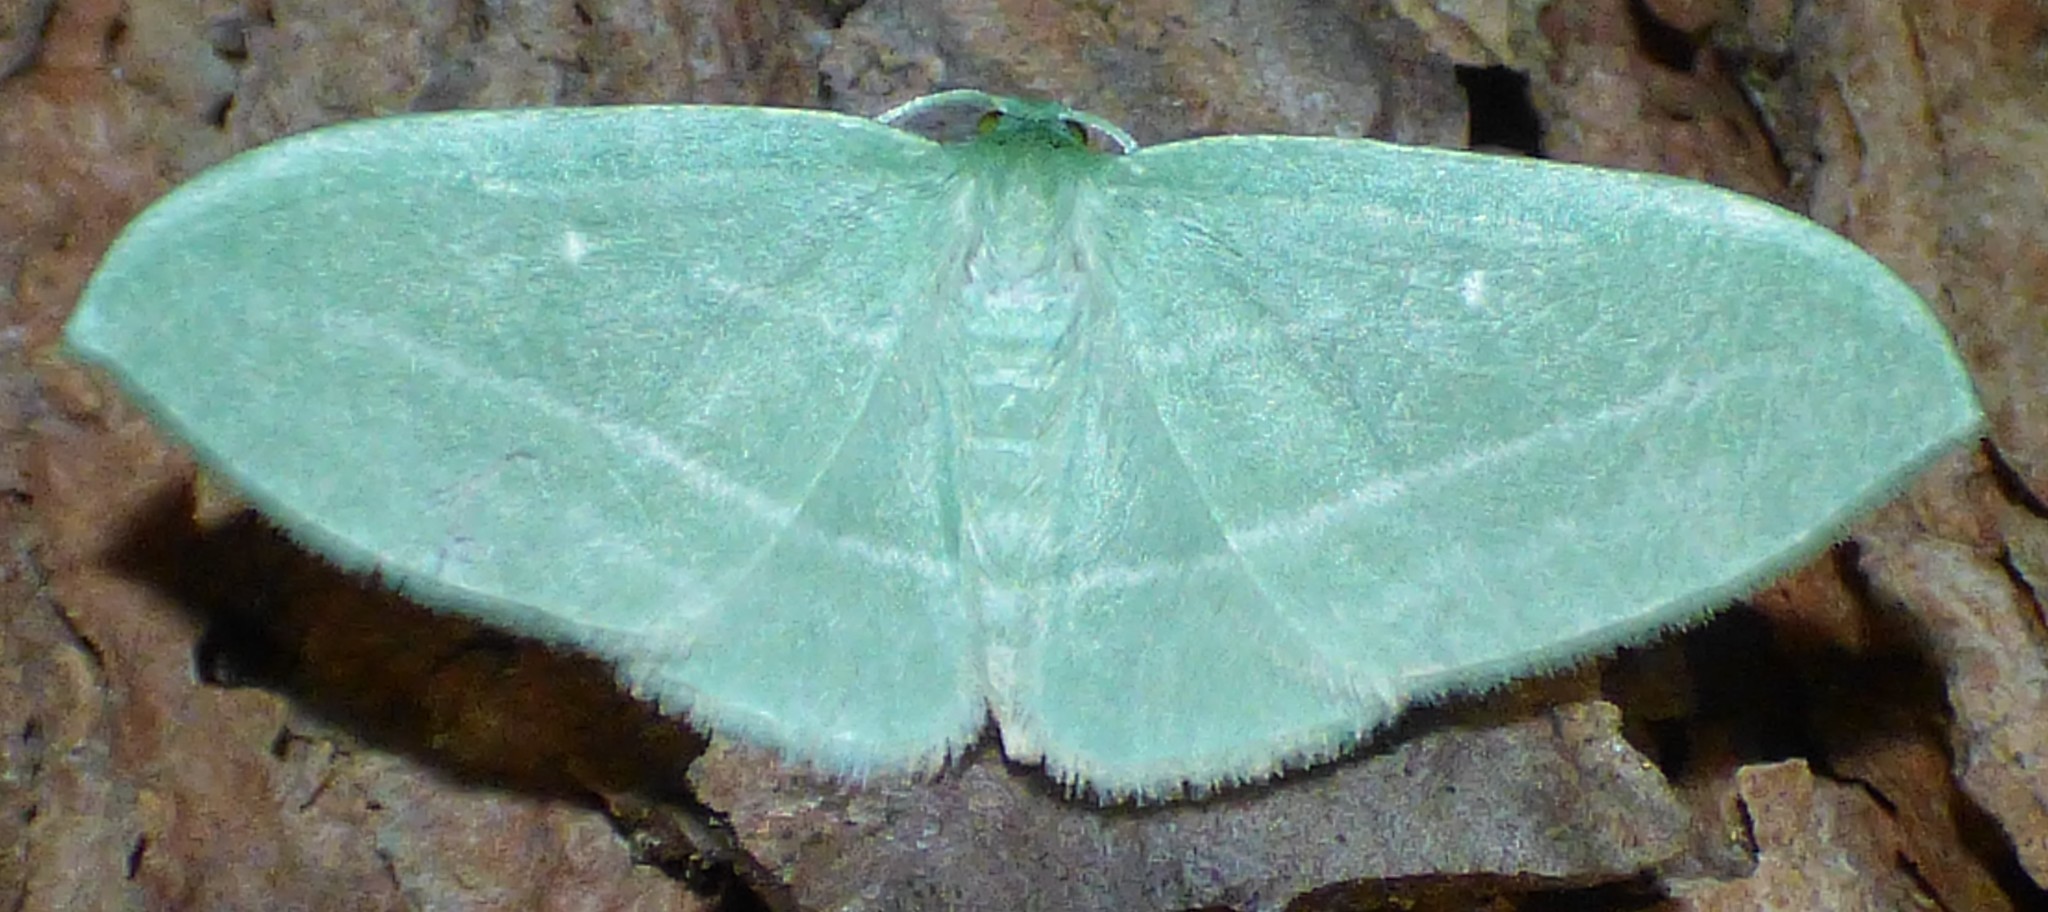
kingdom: Animalia
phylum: Arthropoda
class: Insecta
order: Lepidoptera
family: Geometridae
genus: Dyspteris
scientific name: Dyspteris abortivaria
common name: Bad-wing
